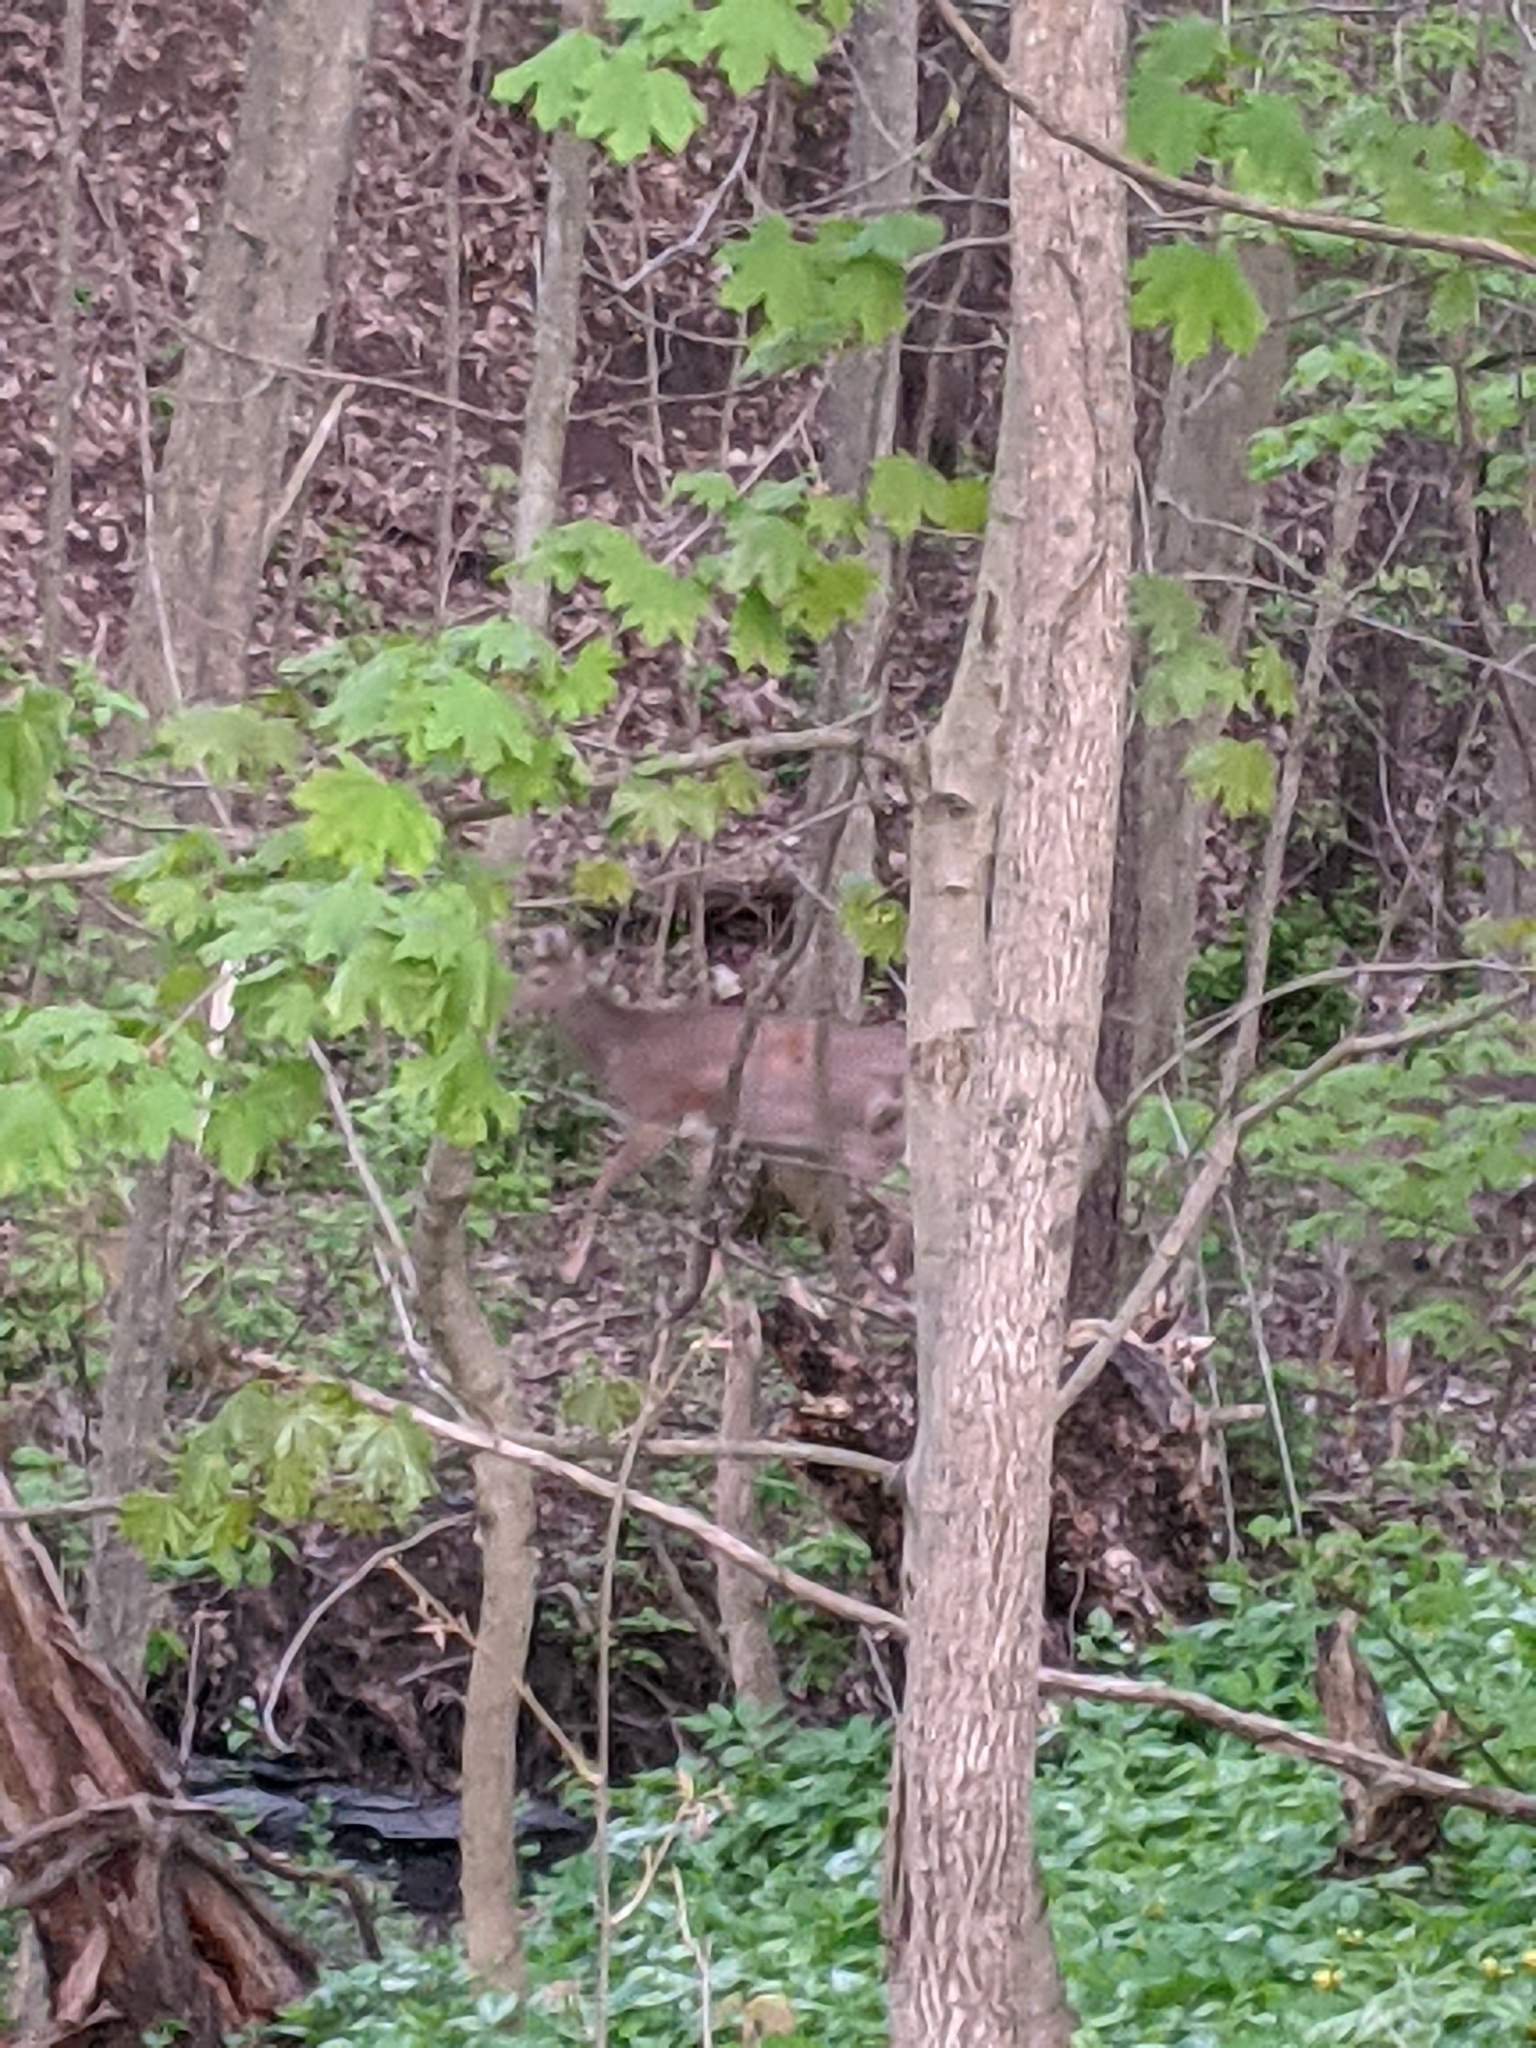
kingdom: Animalia
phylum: Chordata
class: Mammalia
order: Artiodactyla
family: Cervidae
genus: Odocoileus
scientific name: Odocoileus virginianus
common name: White-tailed deer
